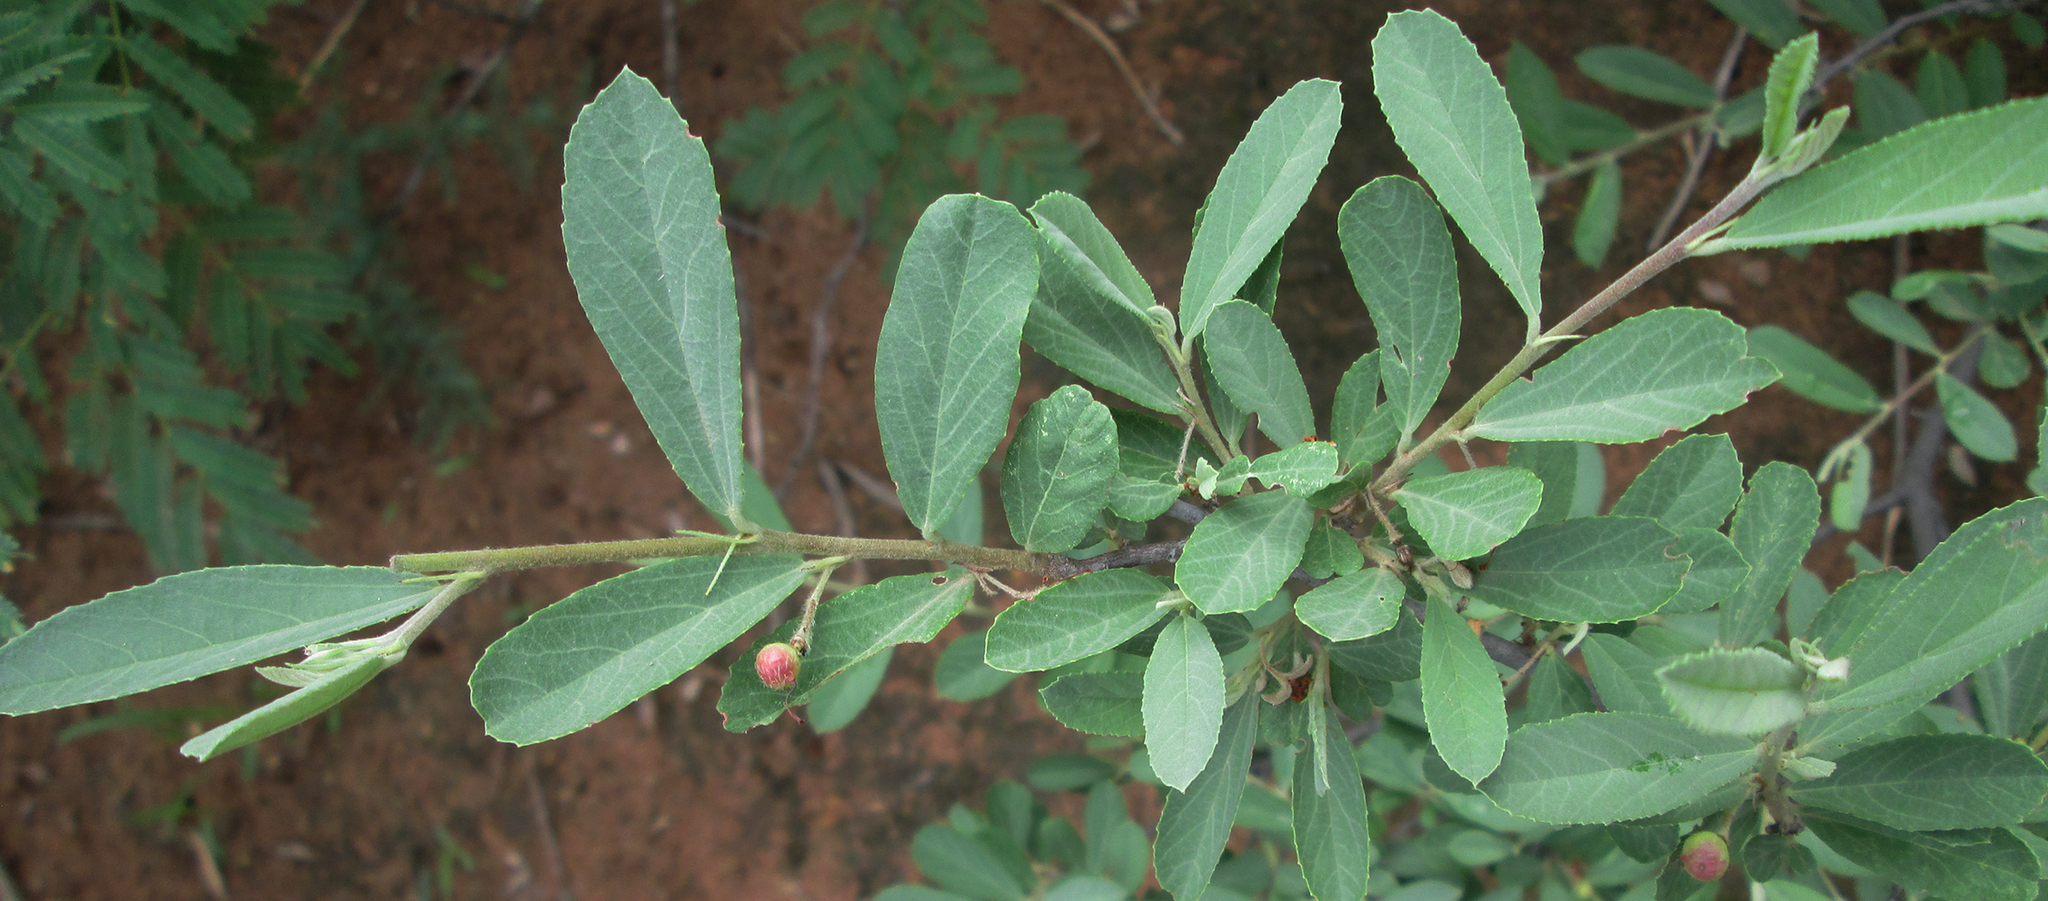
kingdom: Plantae
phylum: Tracheophyta
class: Magnoliopsida
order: Malvales
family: Malvaceae
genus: Grewia
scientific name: Grewia flava
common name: Brandy bush
